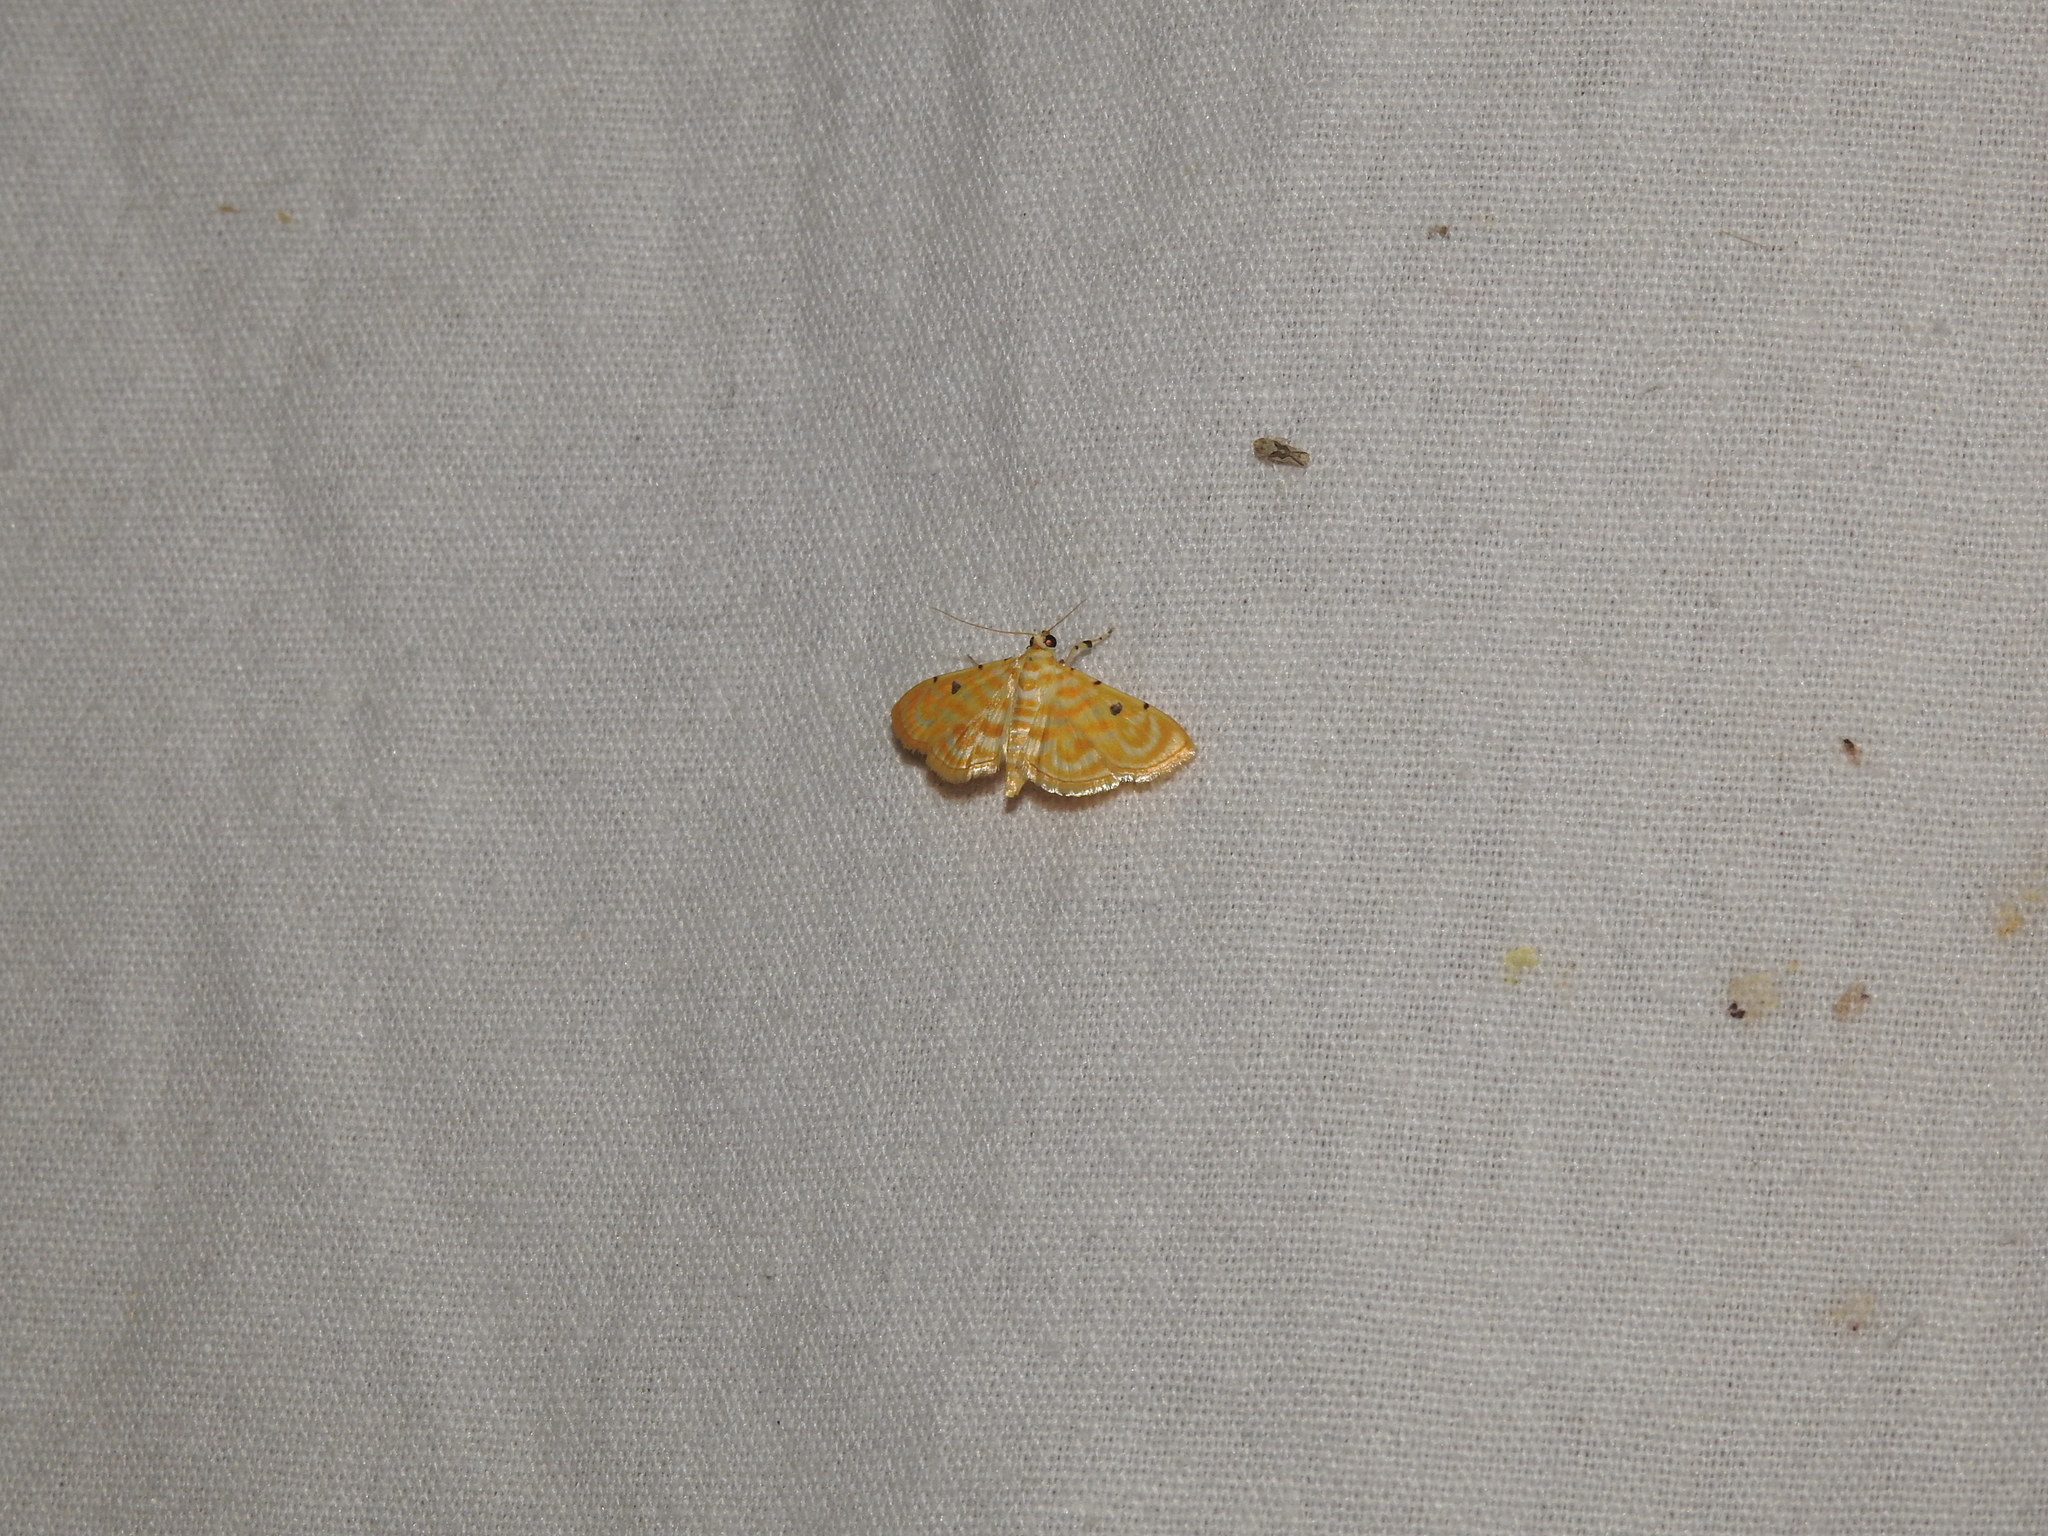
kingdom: Animalia
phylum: Arthropoda
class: Insecta
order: Lepidoptera
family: Crambidae
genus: Notarcha
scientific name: Notarcha aurolinealis
